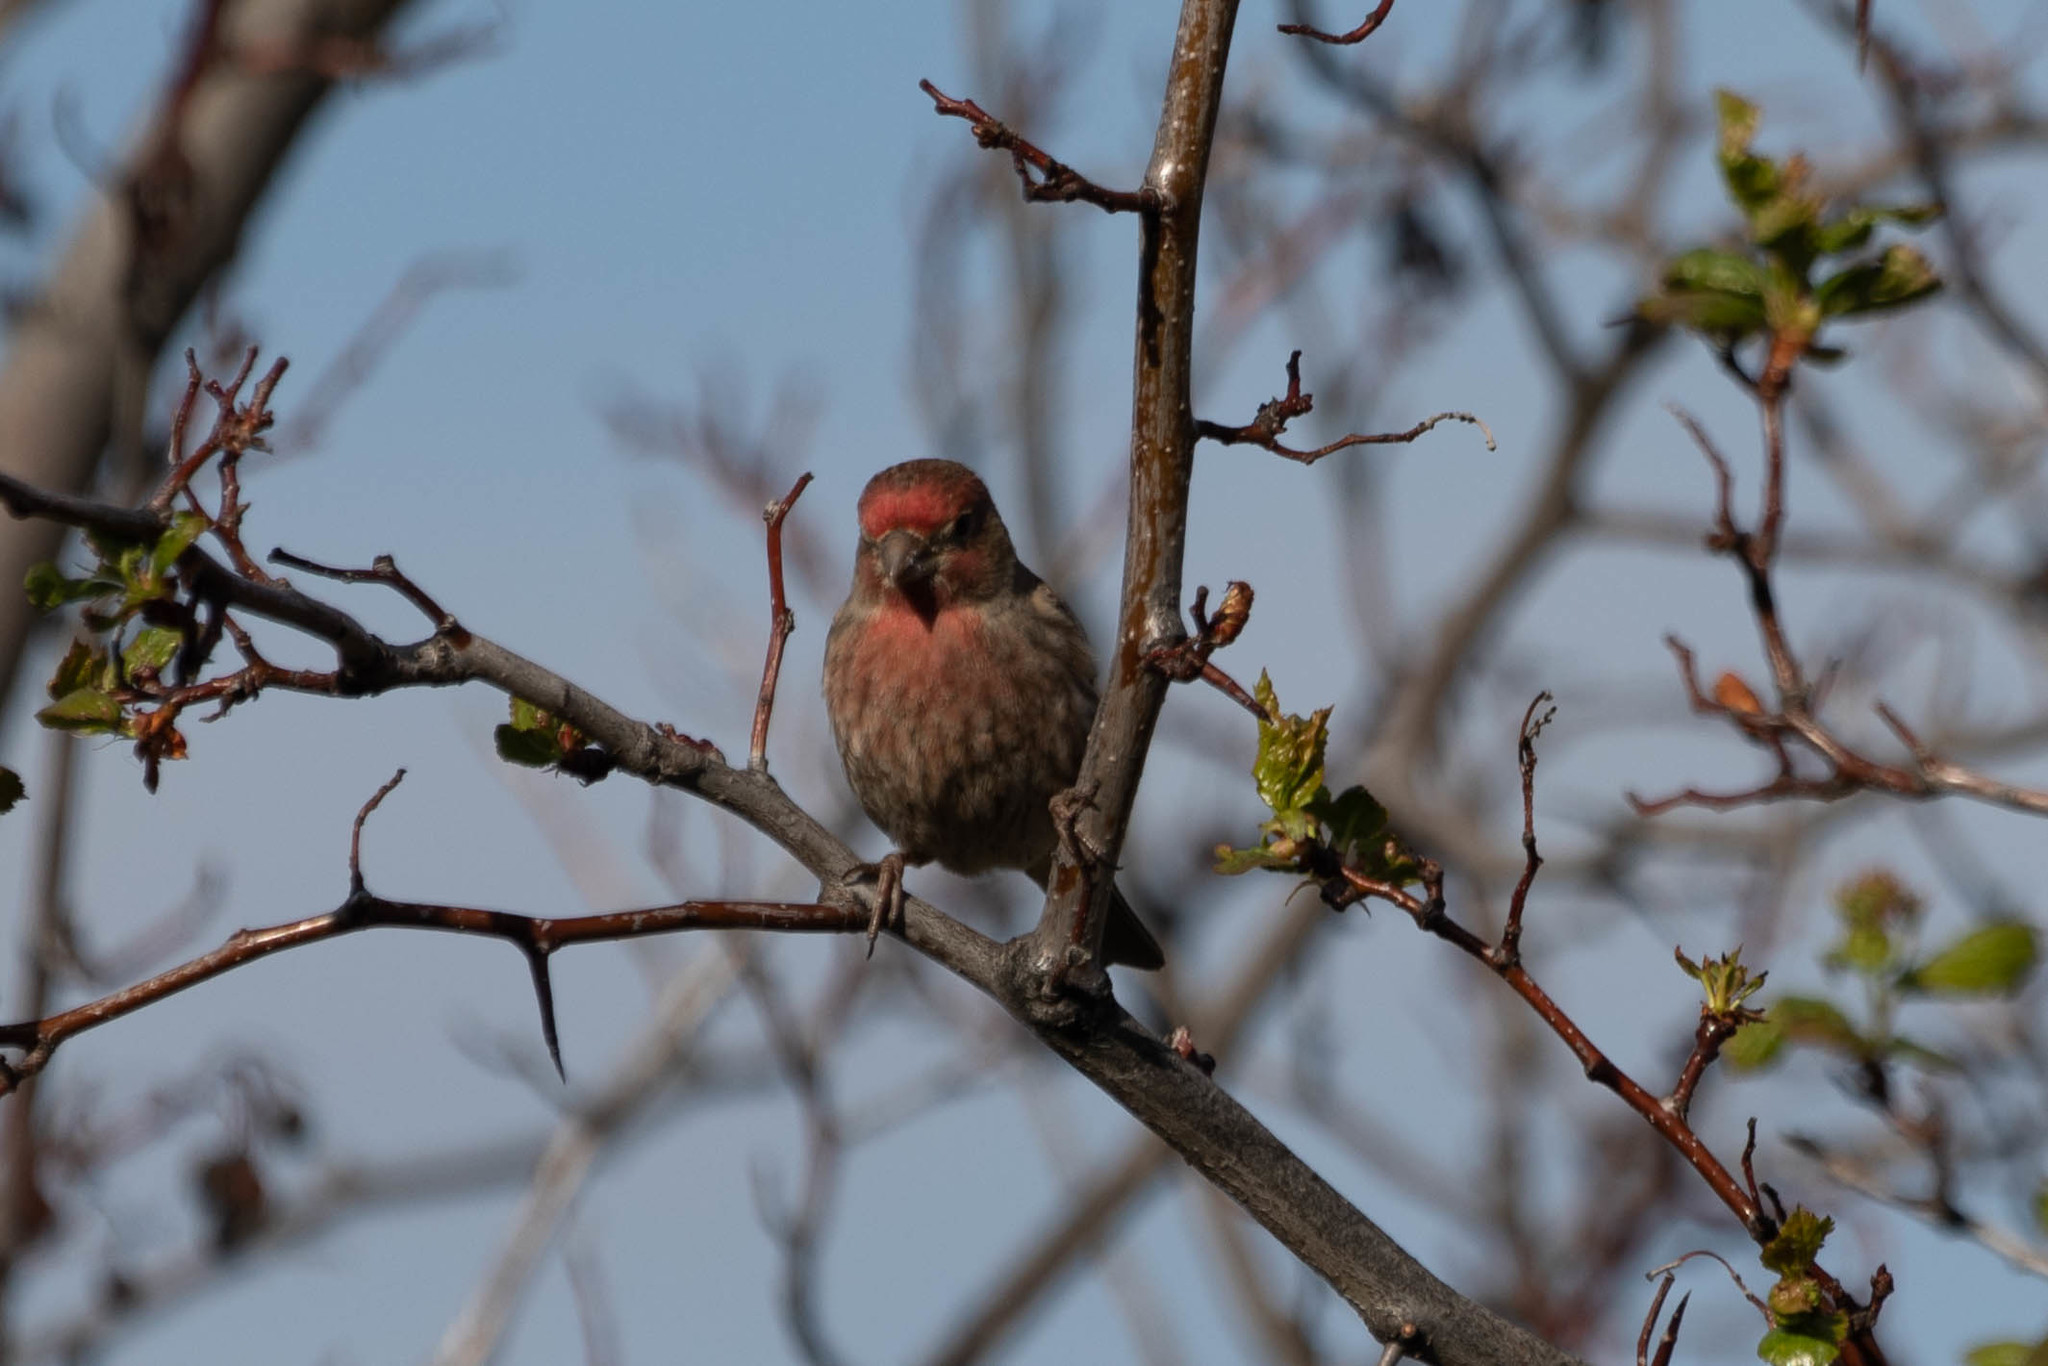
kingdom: Animalia
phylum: Chordata
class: Aves
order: Passeriformes
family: Fringillidae
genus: Haemorhous
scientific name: Haemorhous mexicanus
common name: House finch
